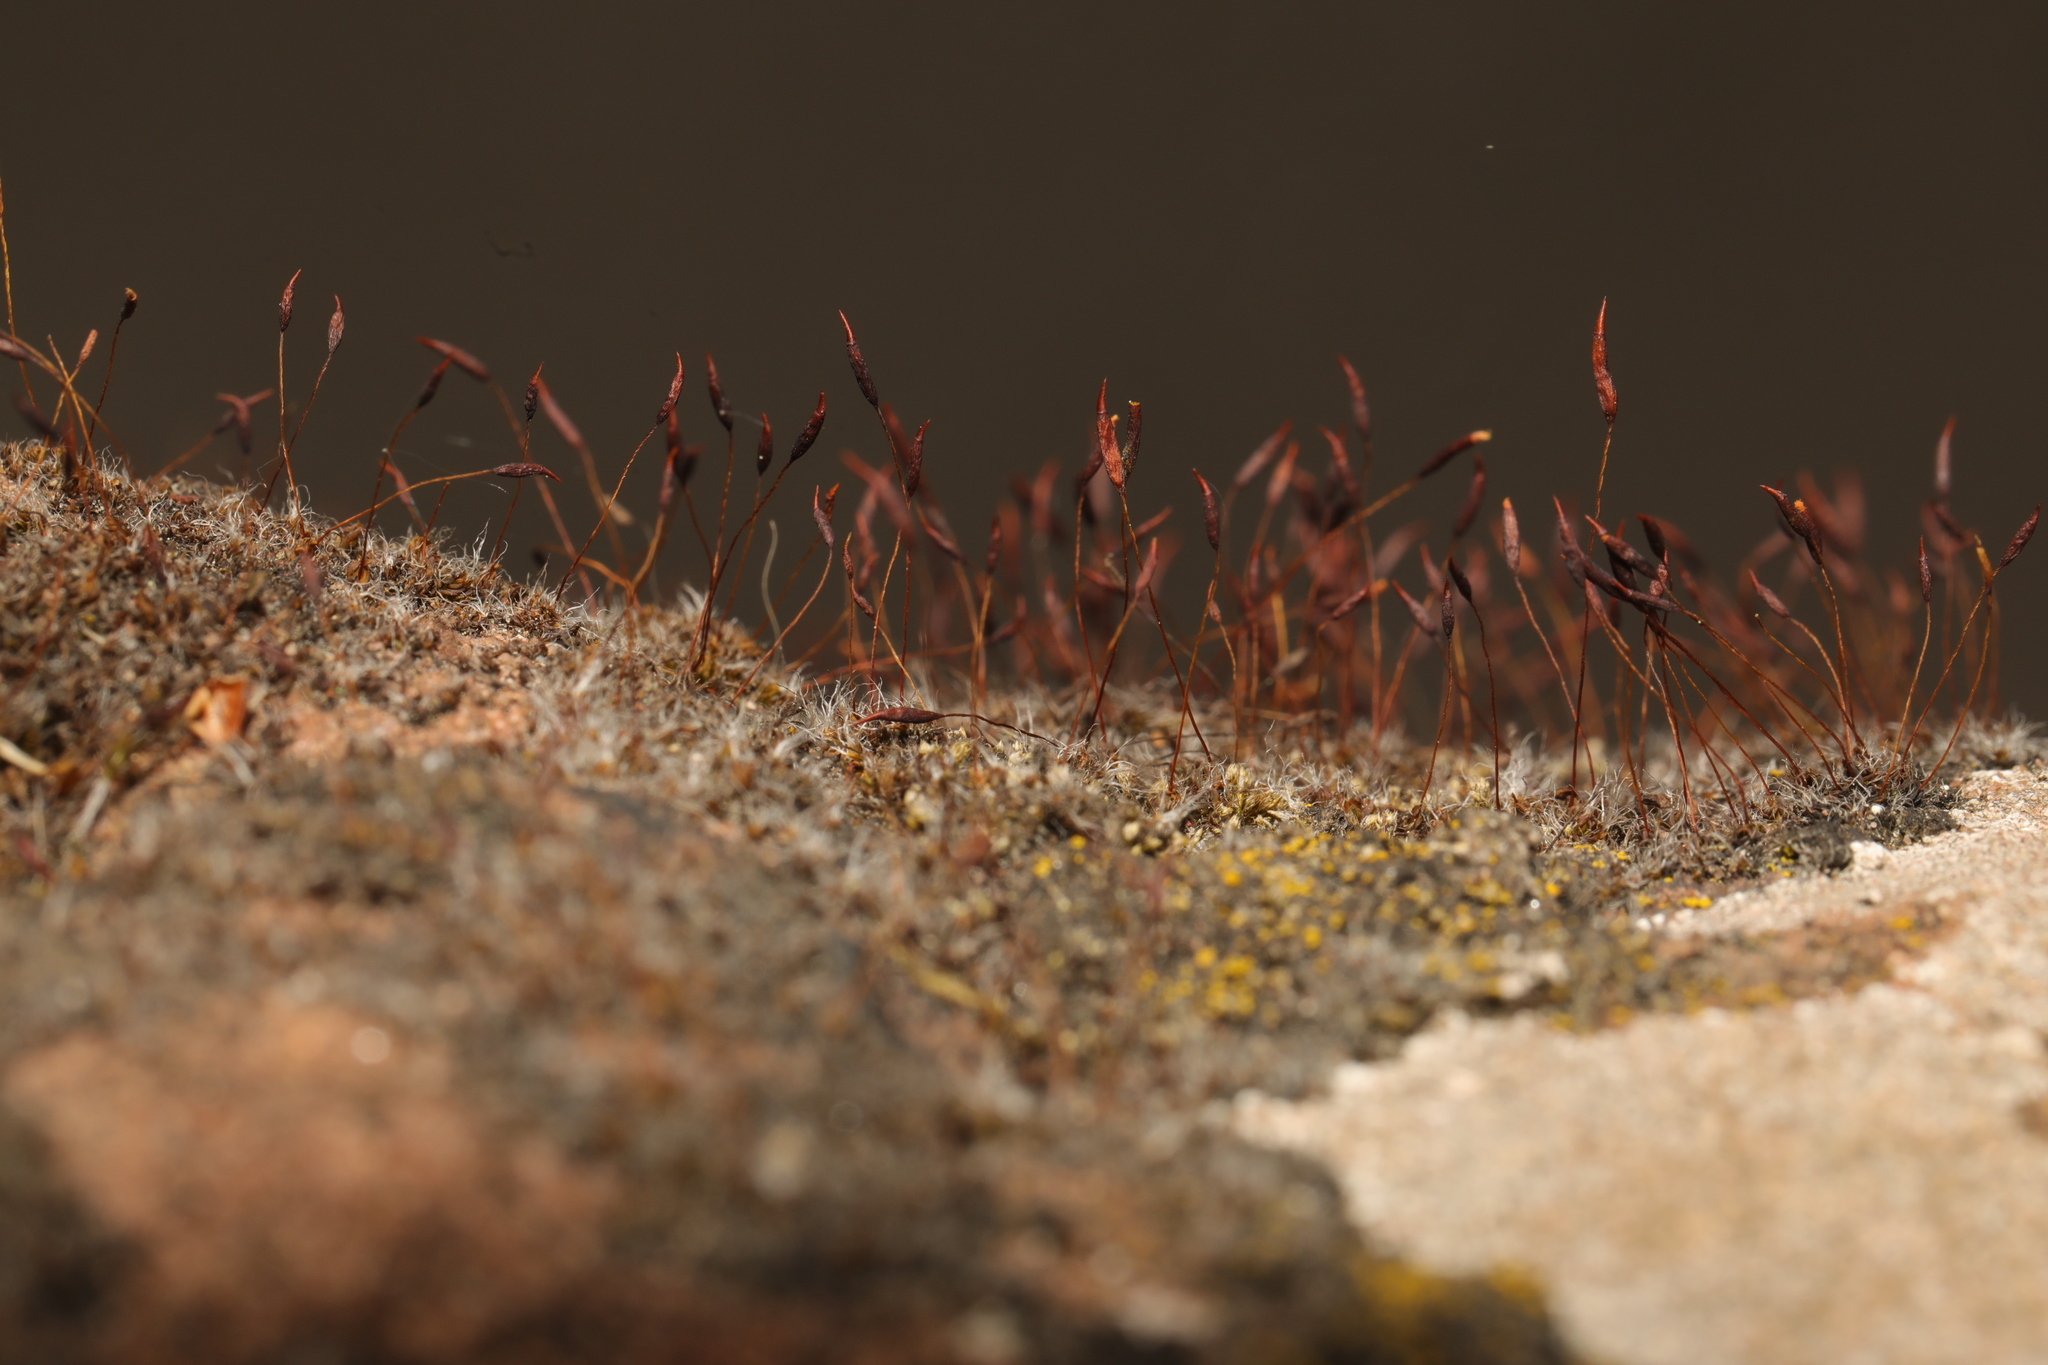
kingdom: Plantae
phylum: Bryophyta
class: Bryopsida
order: Pottiales
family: Pottiaceae
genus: Tortula
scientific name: Tortula muralis
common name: Wall screw-moss
